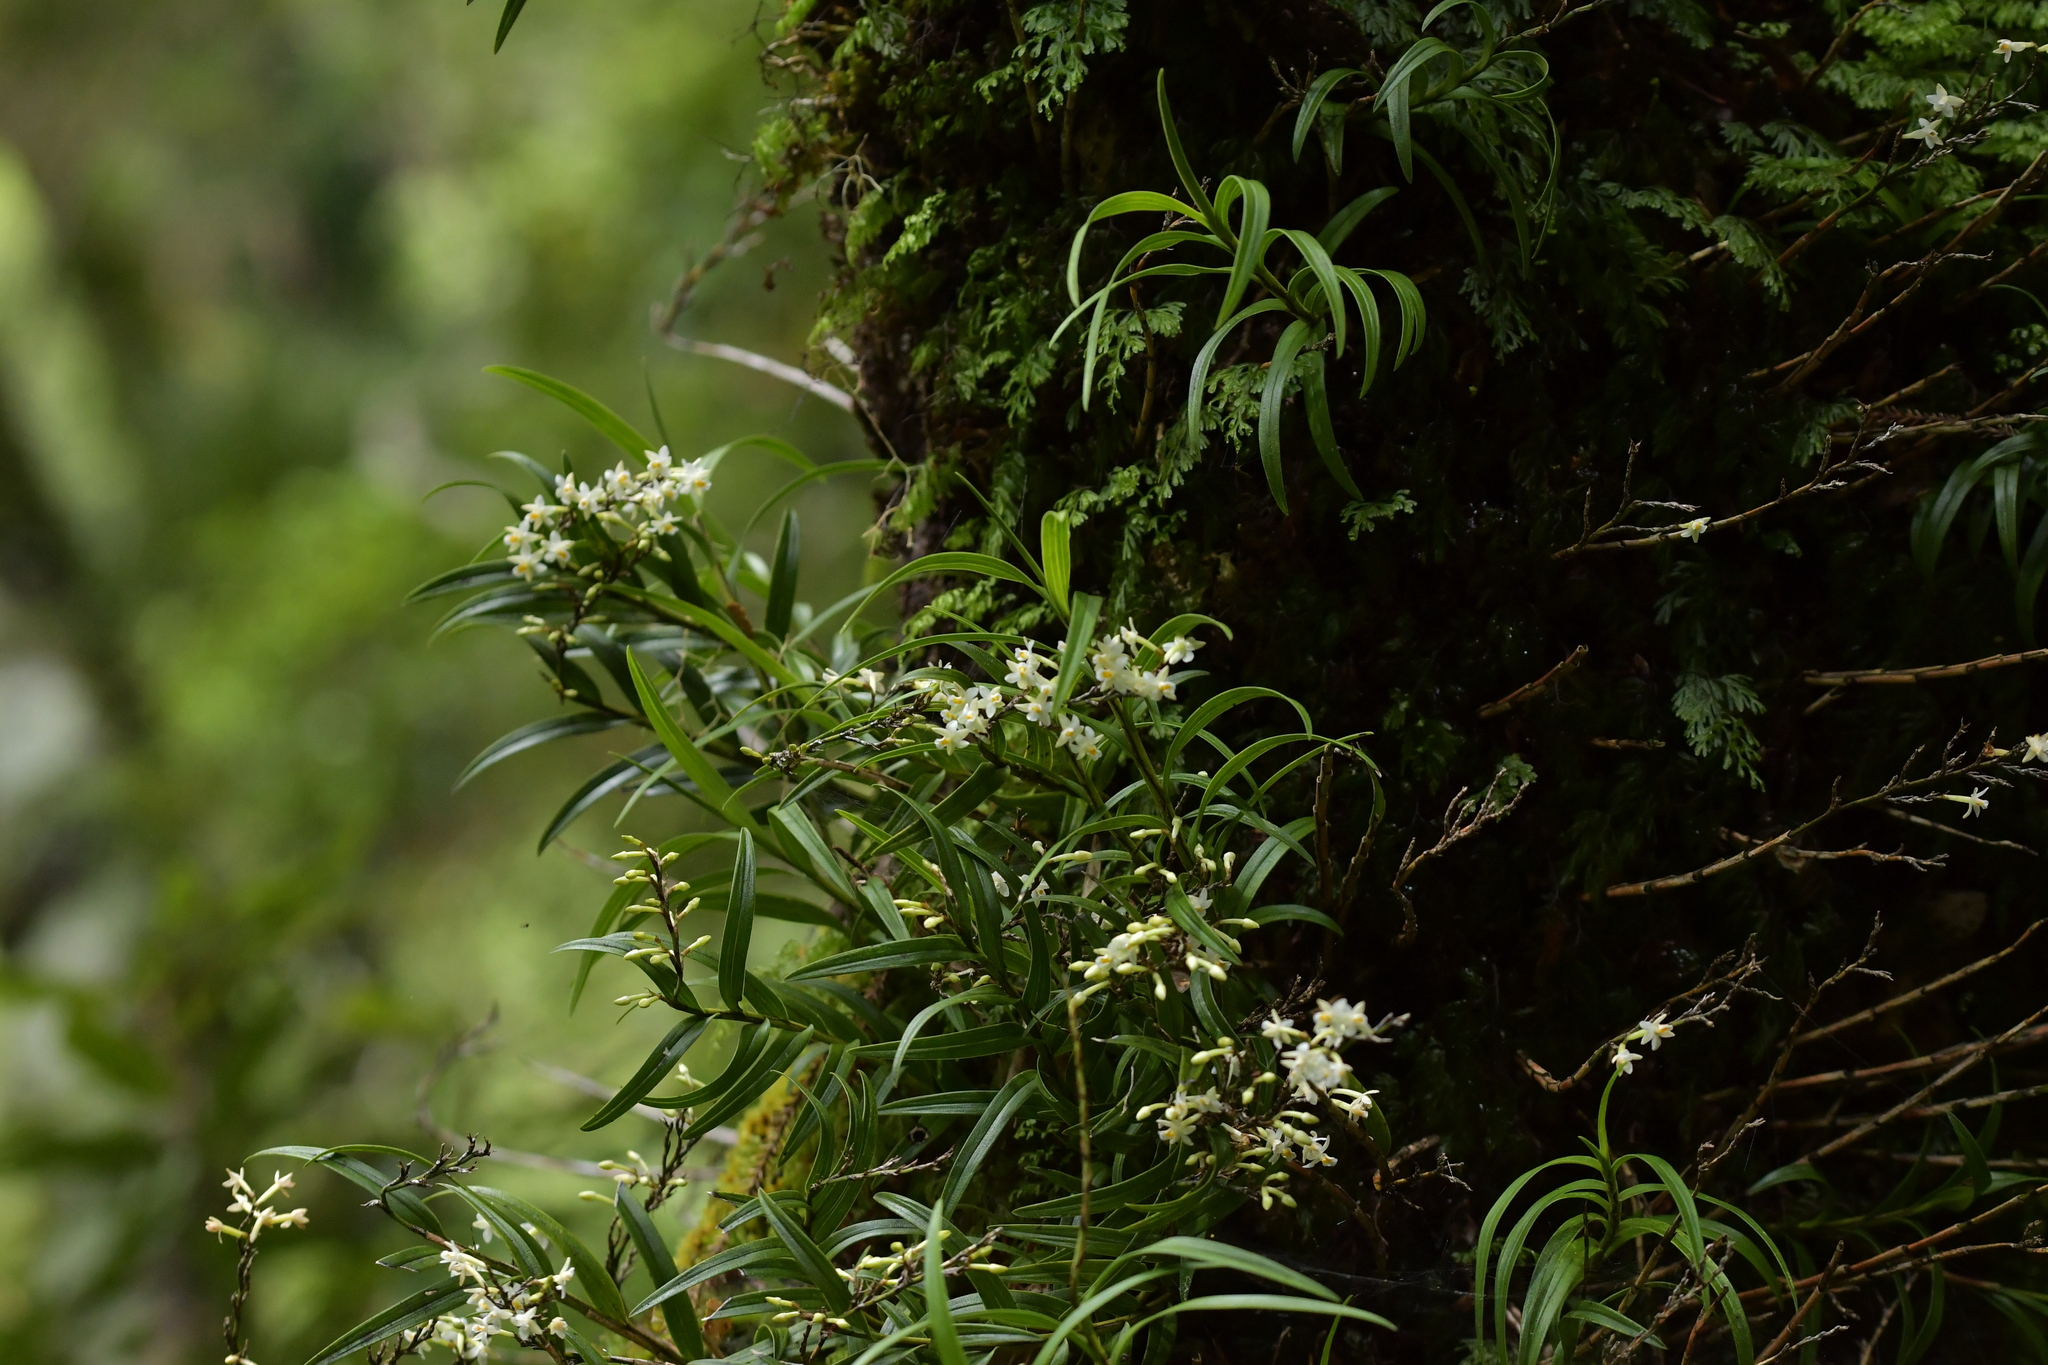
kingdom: Plantae
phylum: Tracheophyta
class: Liliopsida
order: Asparagales
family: Orchidaceae
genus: Earina
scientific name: Earina autumnalis
